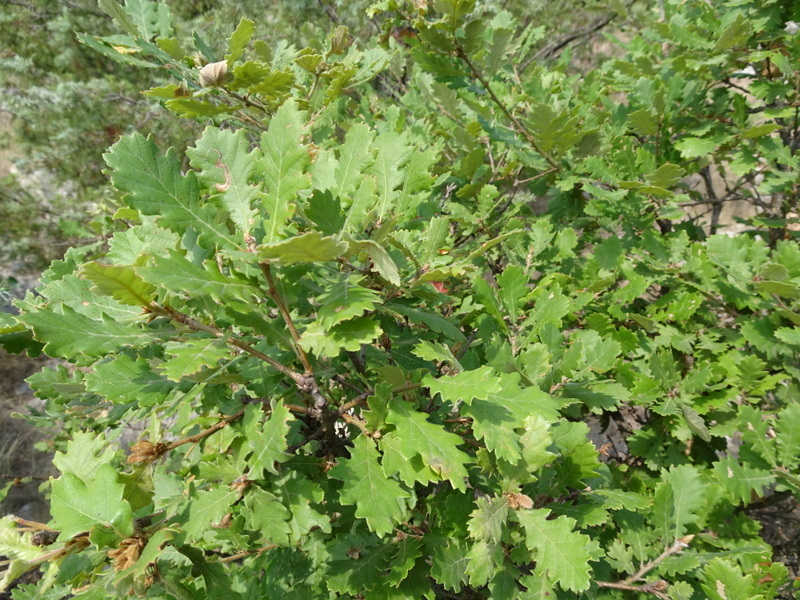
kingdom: Plantae
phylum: Tracheophyta
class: Magnoliopsida
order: Fagales
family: Fagaceae
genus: Quercus
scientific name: Quercus pubescens
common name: Downy oak
